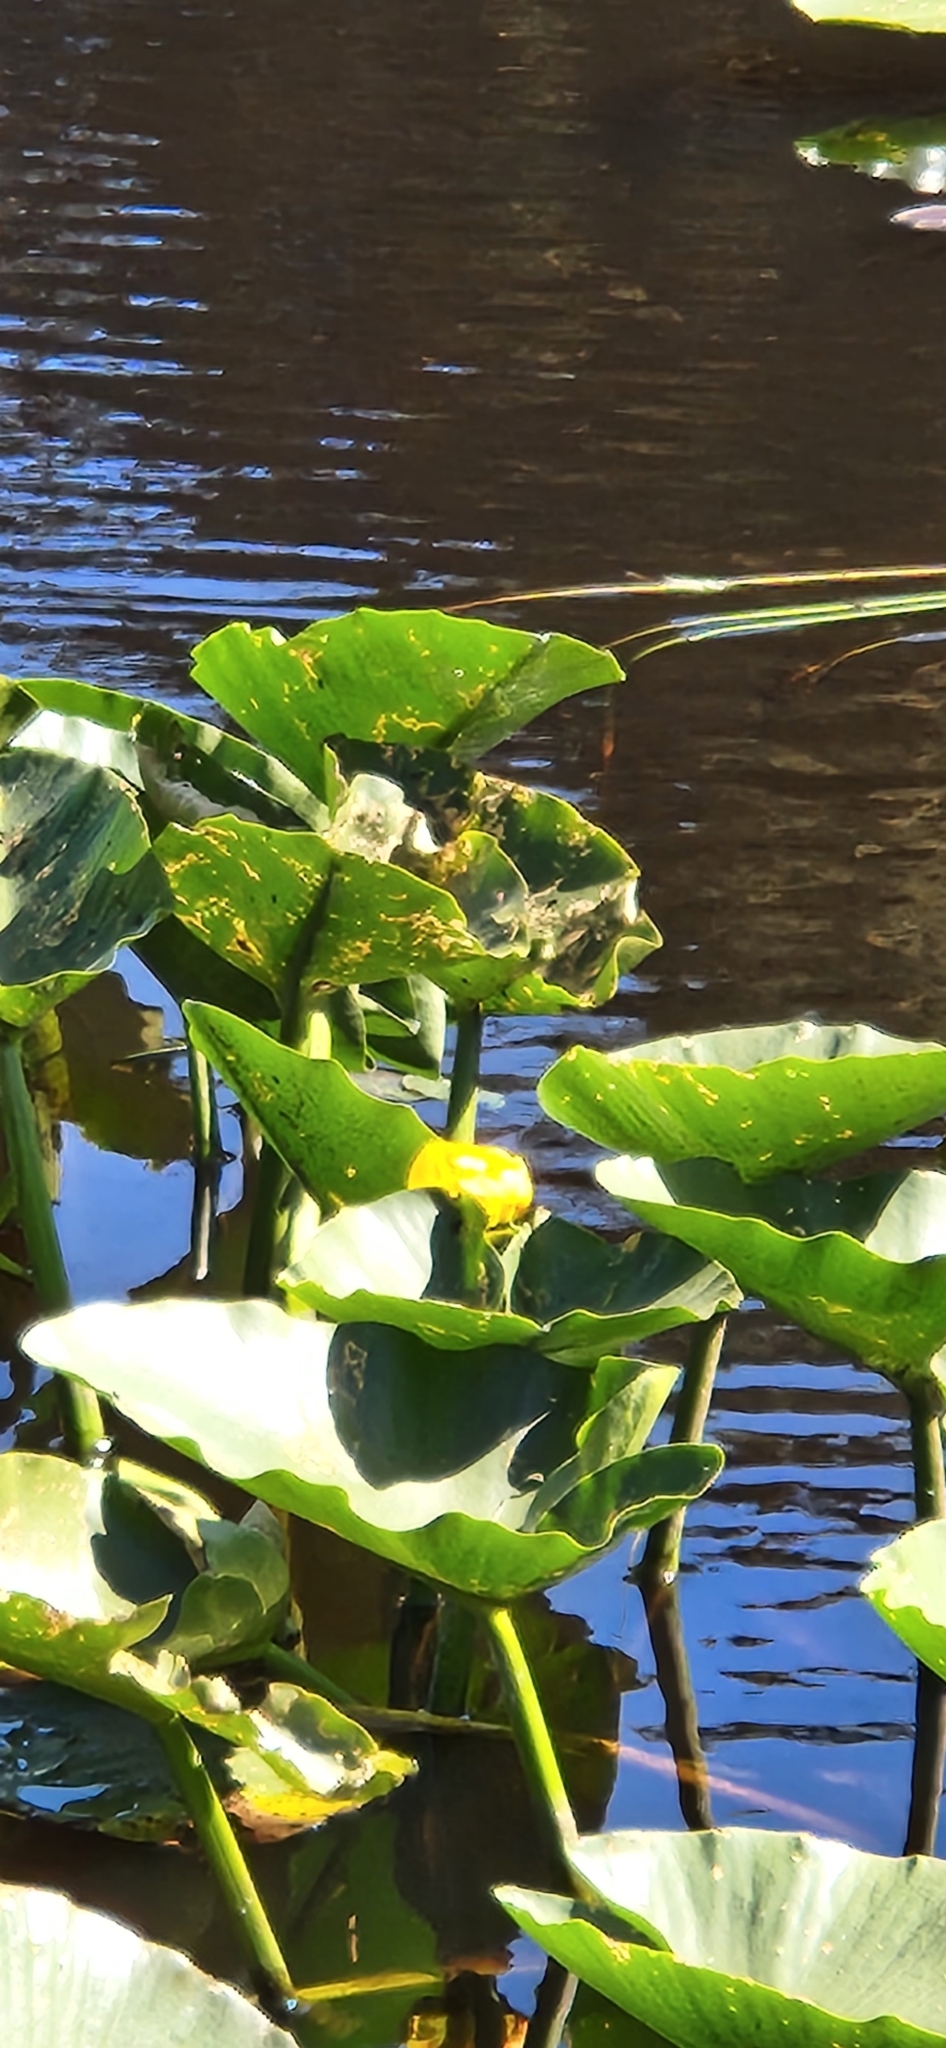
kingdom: Plantae
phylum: Tracheophyta
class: Magnoliopsida
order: Nymphaeales
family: Nymphaeaceae
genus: Nuphar
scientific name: Nuphar polysepala
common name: Rocky mountain cow-lily
